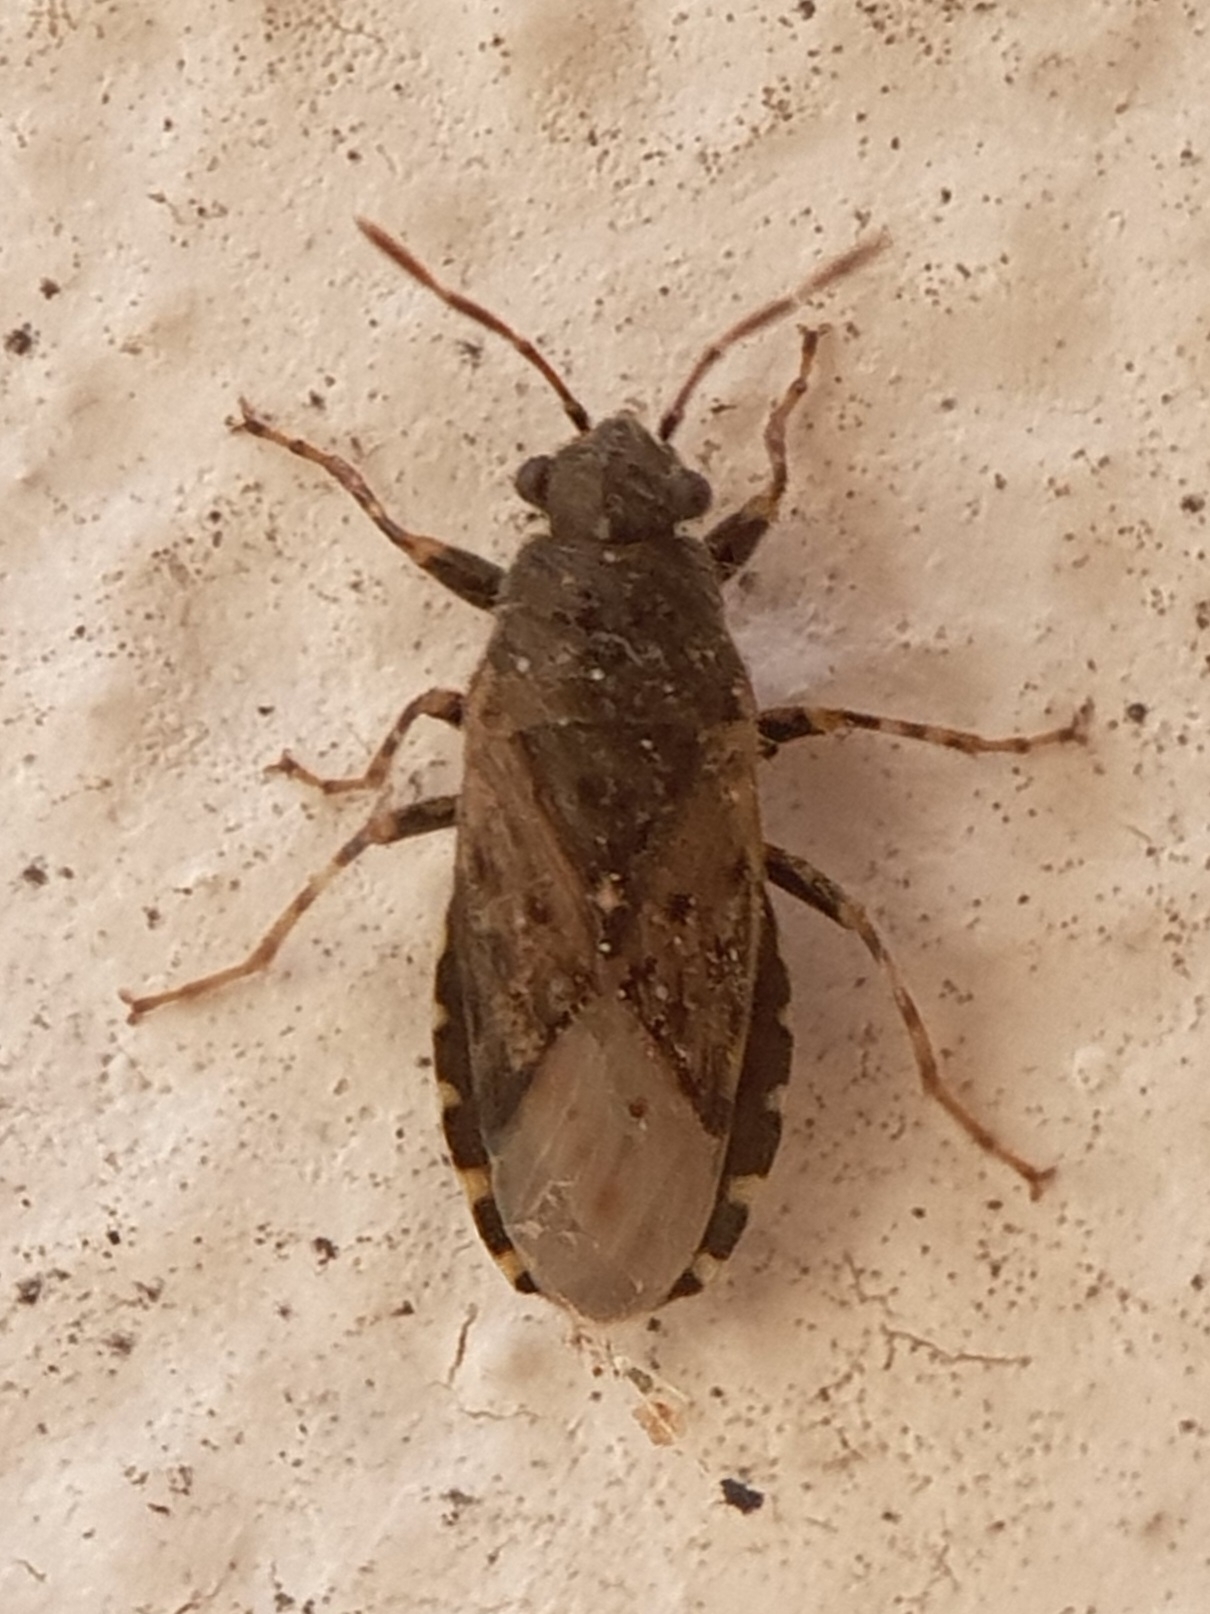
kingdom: Animalia
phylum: Arthropoda
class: Insecta
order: Hemiptera
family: Heterogastridae
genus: Heterogaster
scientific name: Heterogaster urticae
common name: Seed bug
